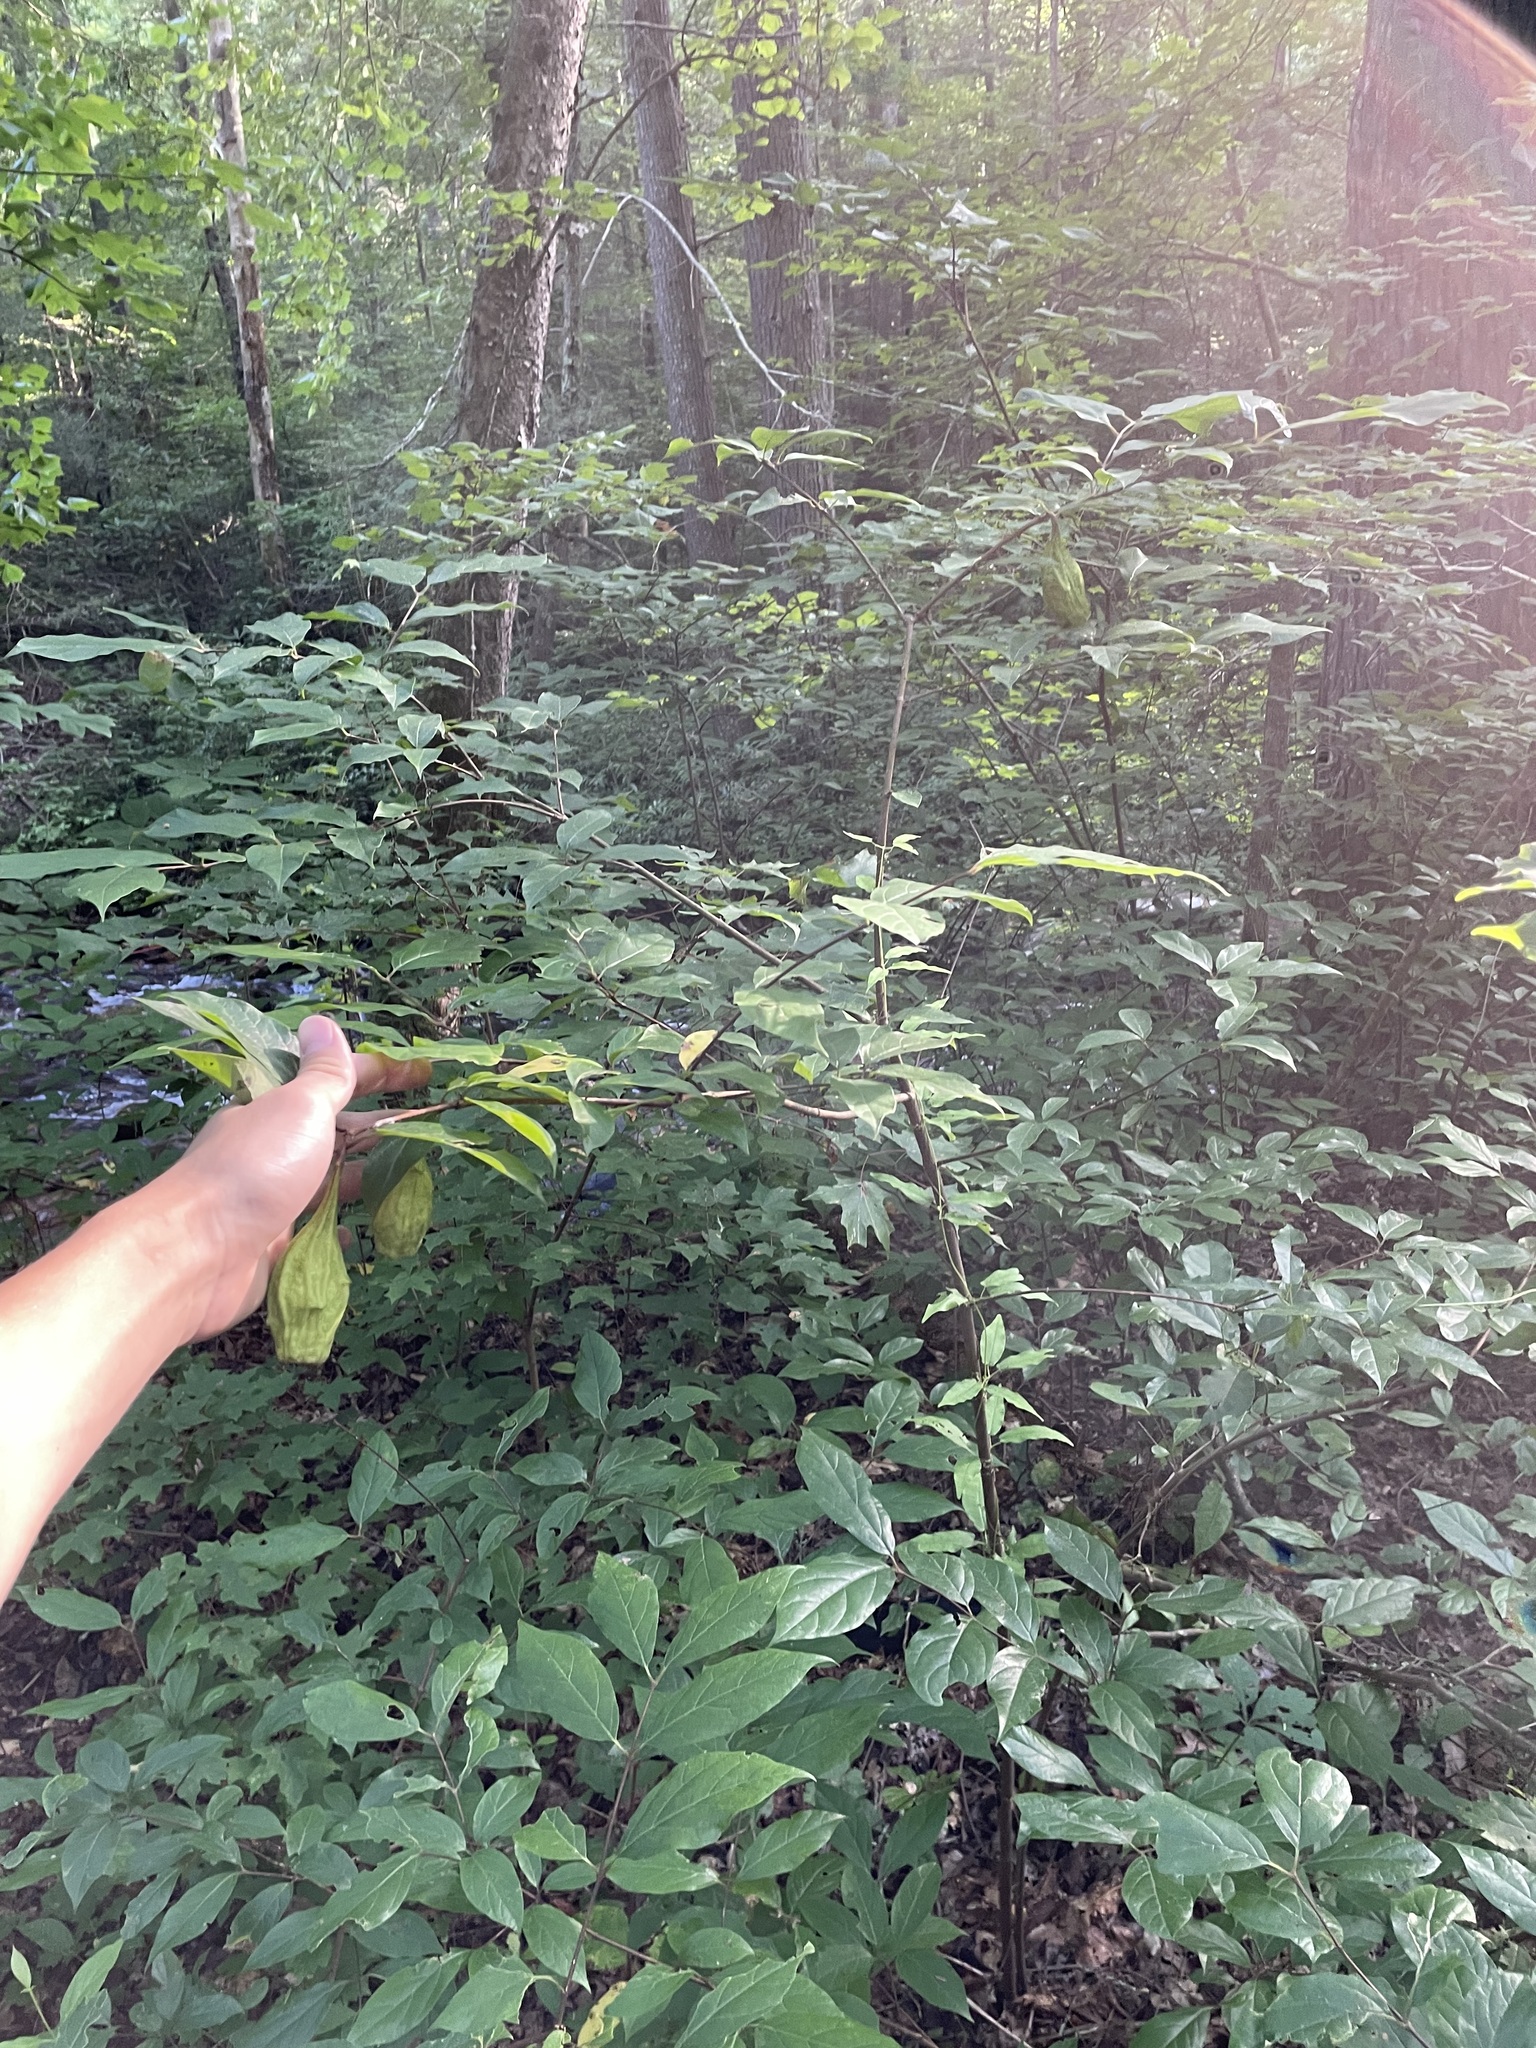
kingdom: Plantae
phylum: Tracheophyta
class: Magnoliopsida
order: Laurales
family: Calycanthaceae
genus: Calycanthus
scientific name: Calycanthus floridus
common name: Carolina-allspice
